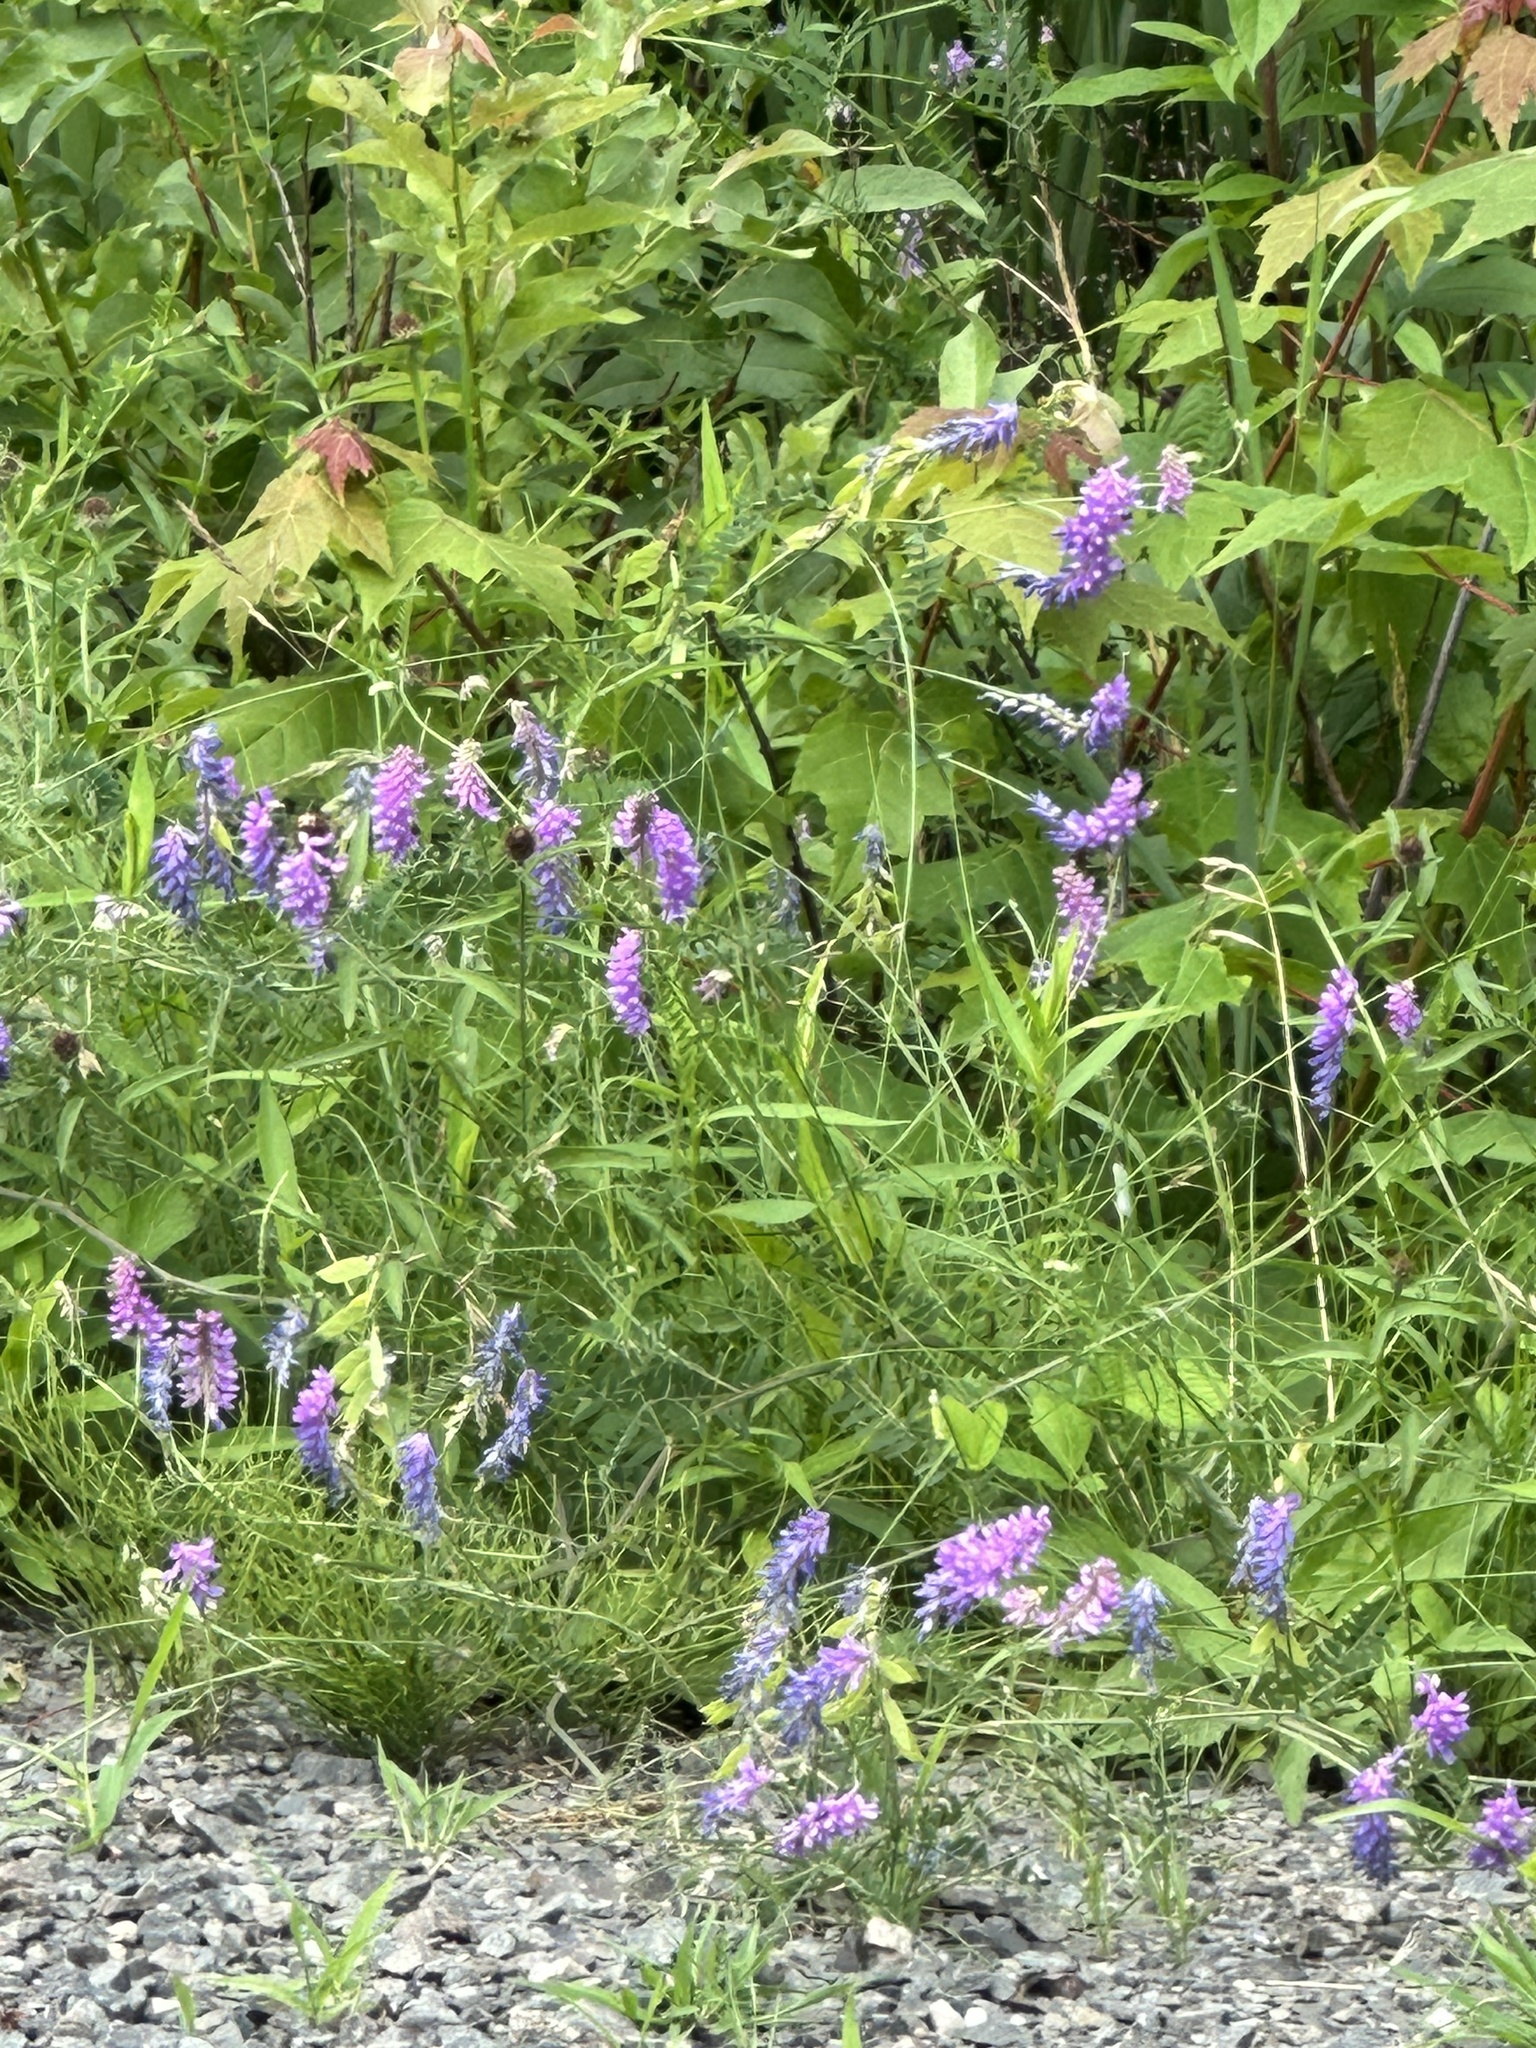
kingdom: Plantae
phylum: Tracheophyta
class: Magnoliopsida
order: Fabales
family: Fabaceae
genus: Vicia
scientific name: Vicia cracca
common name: Bird vetch
